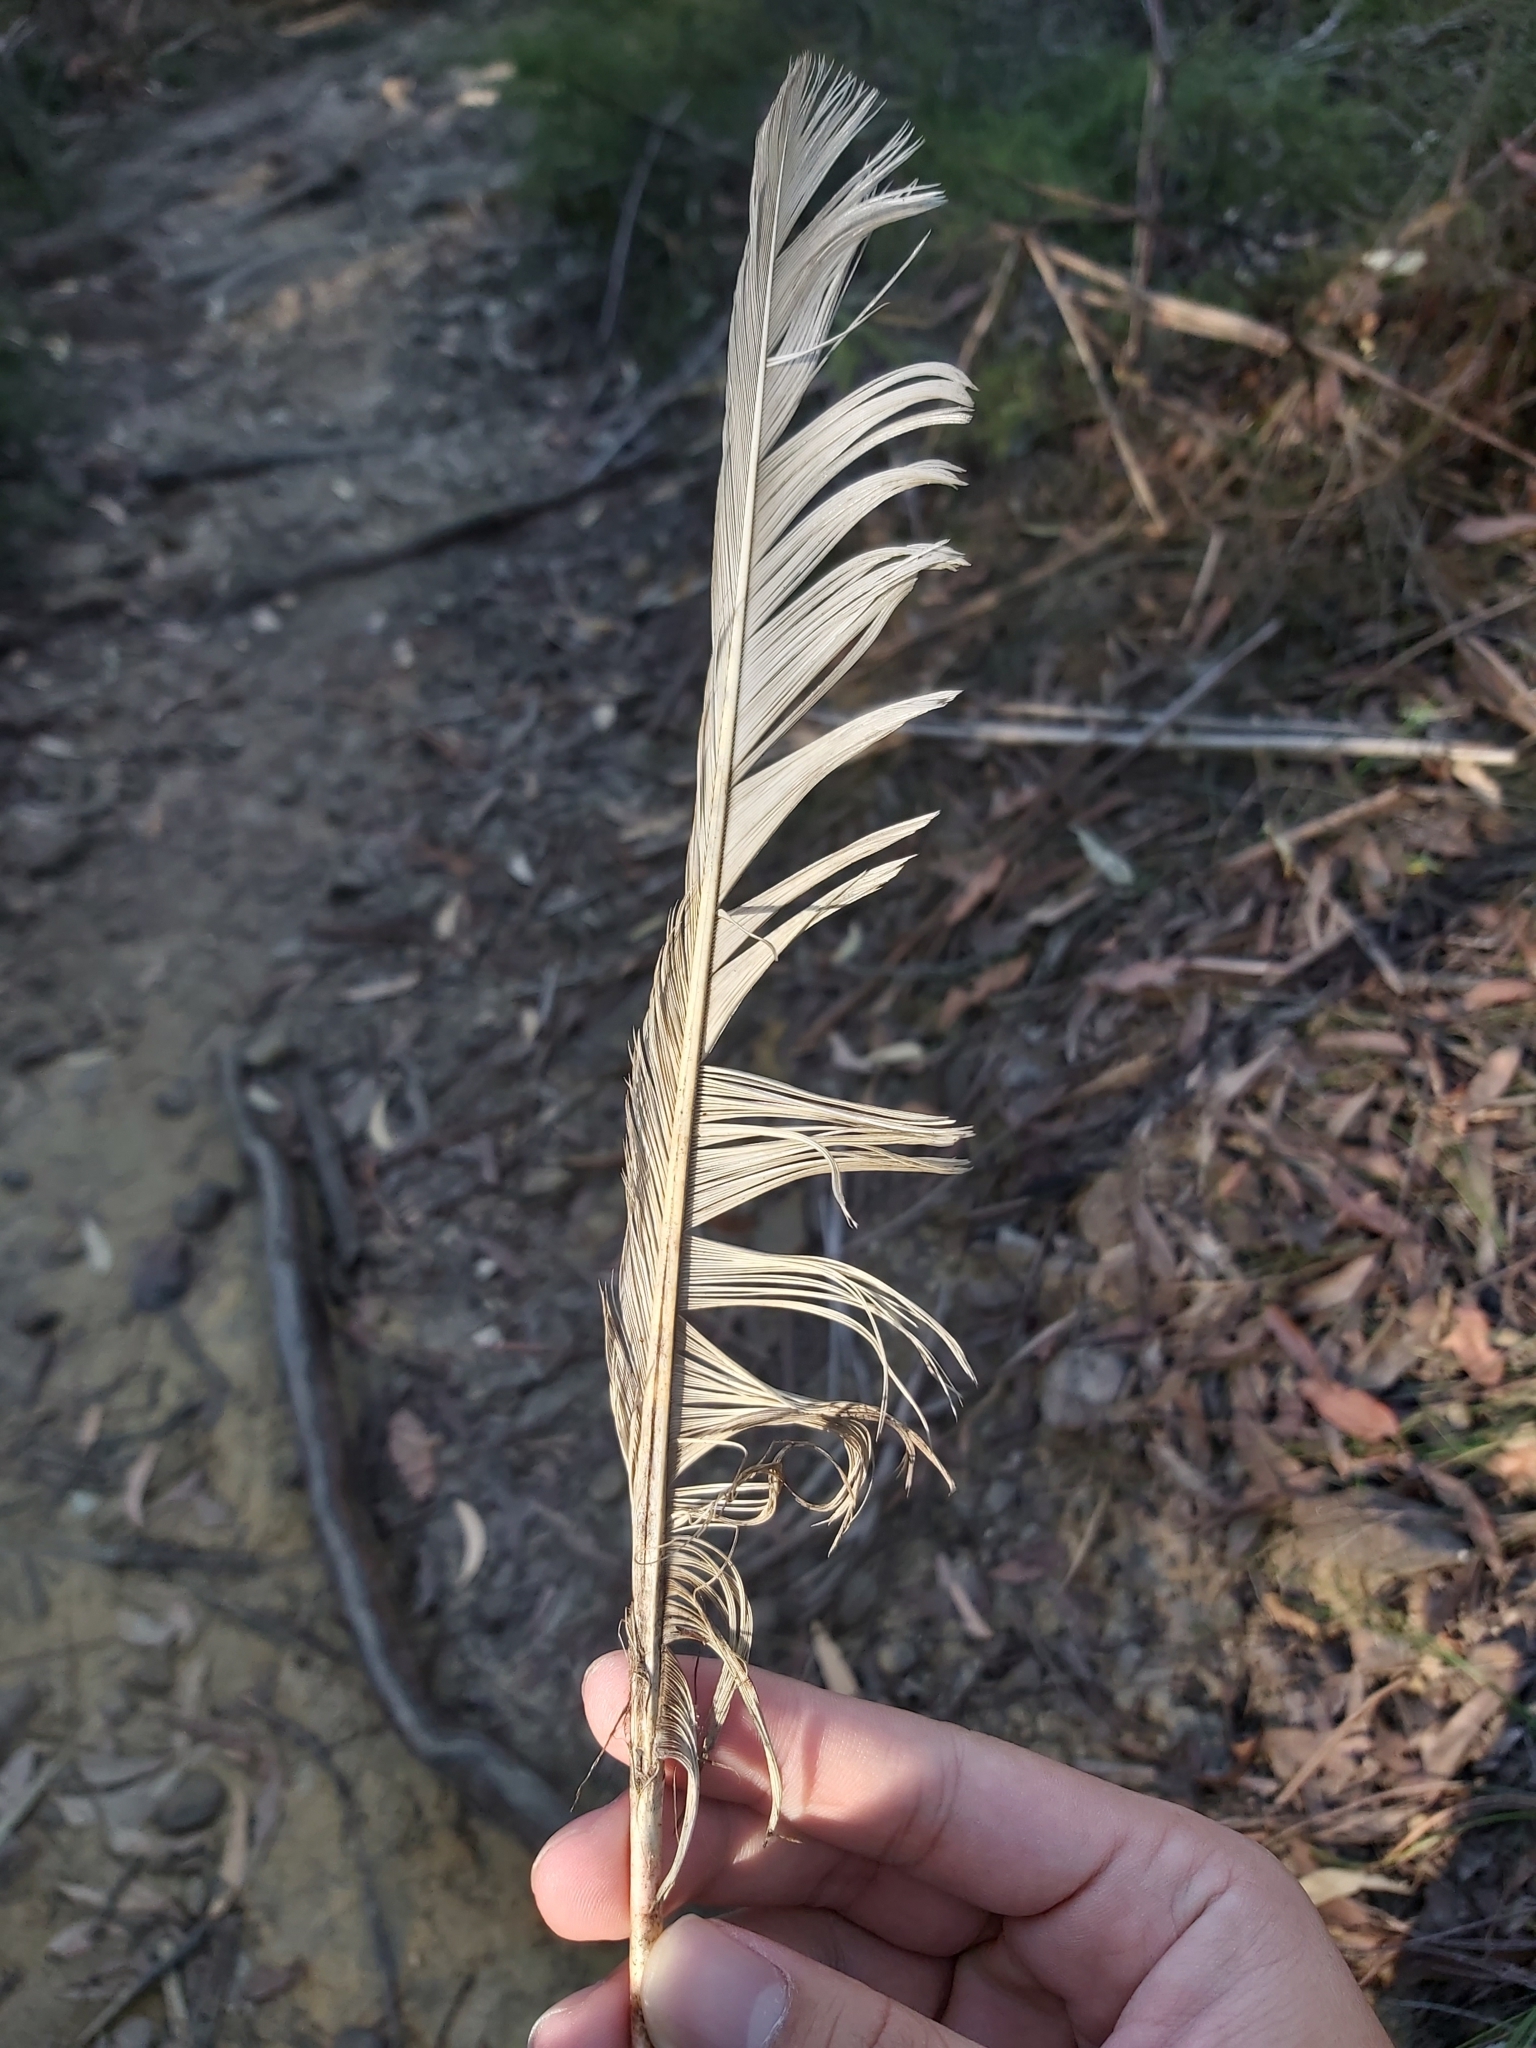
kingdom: Animalia
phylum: Chordata
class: Aves
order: Psittaciformes
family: Psittacidae
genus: Cacatua
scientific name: Cacatua galerita
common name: Sulphur-crested cockatoo
